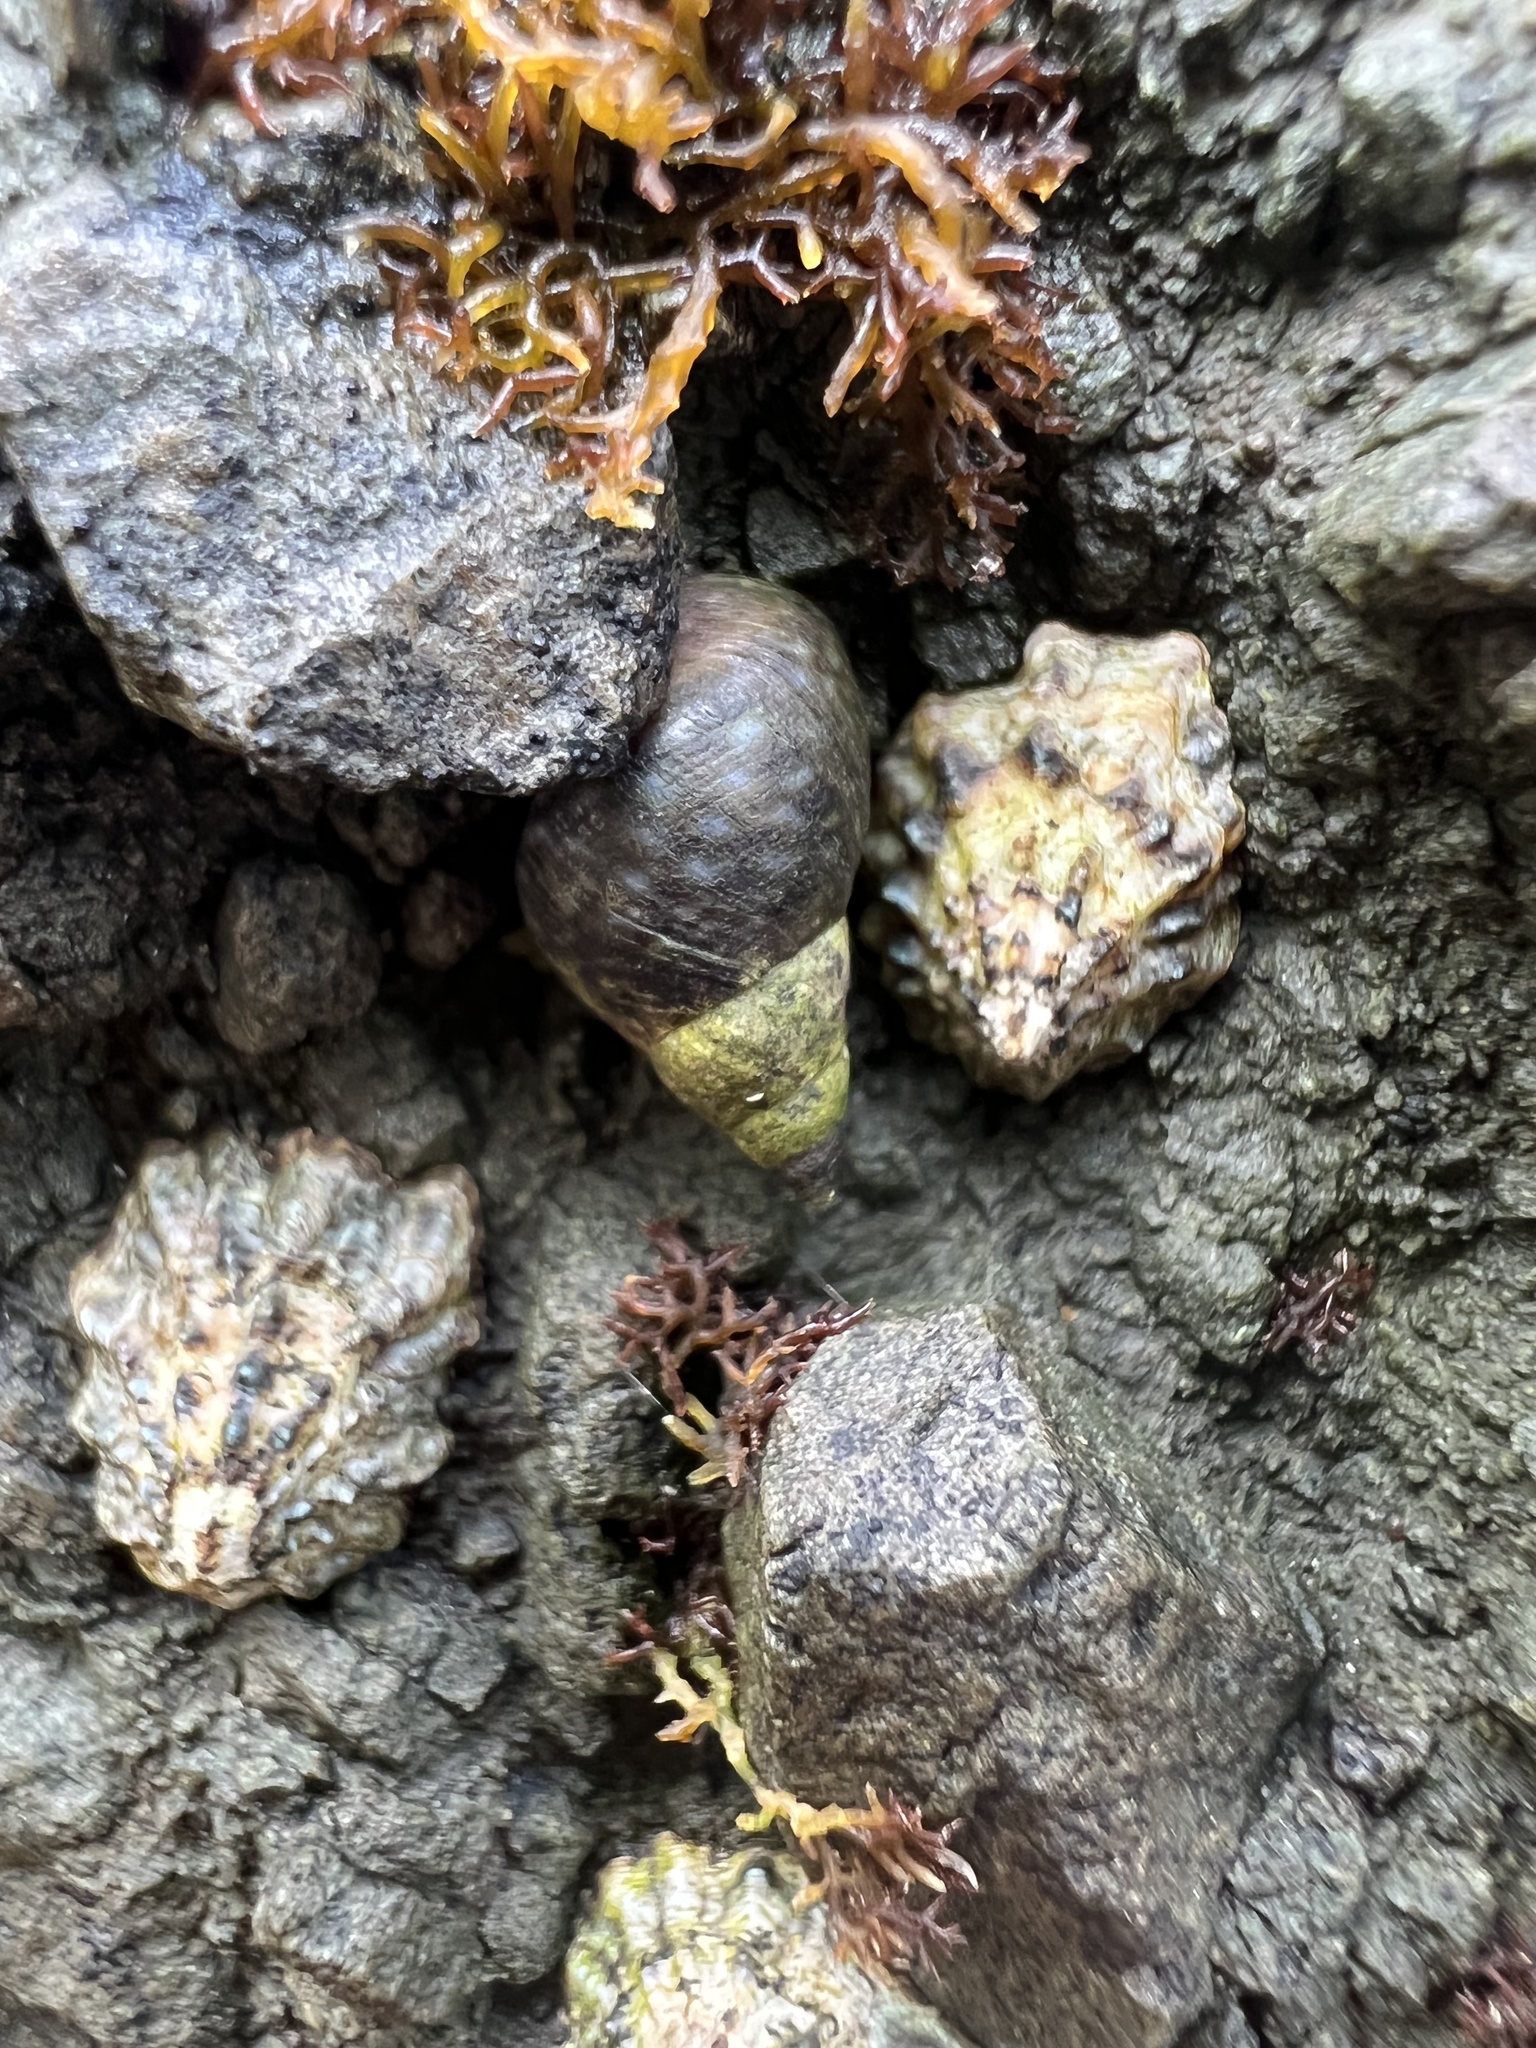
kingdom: Animalia
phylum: Mollusca
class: Gastropoda
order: Littorinimorpha
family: Littorinidae
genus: Littorina
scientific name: Littorina scutulata
